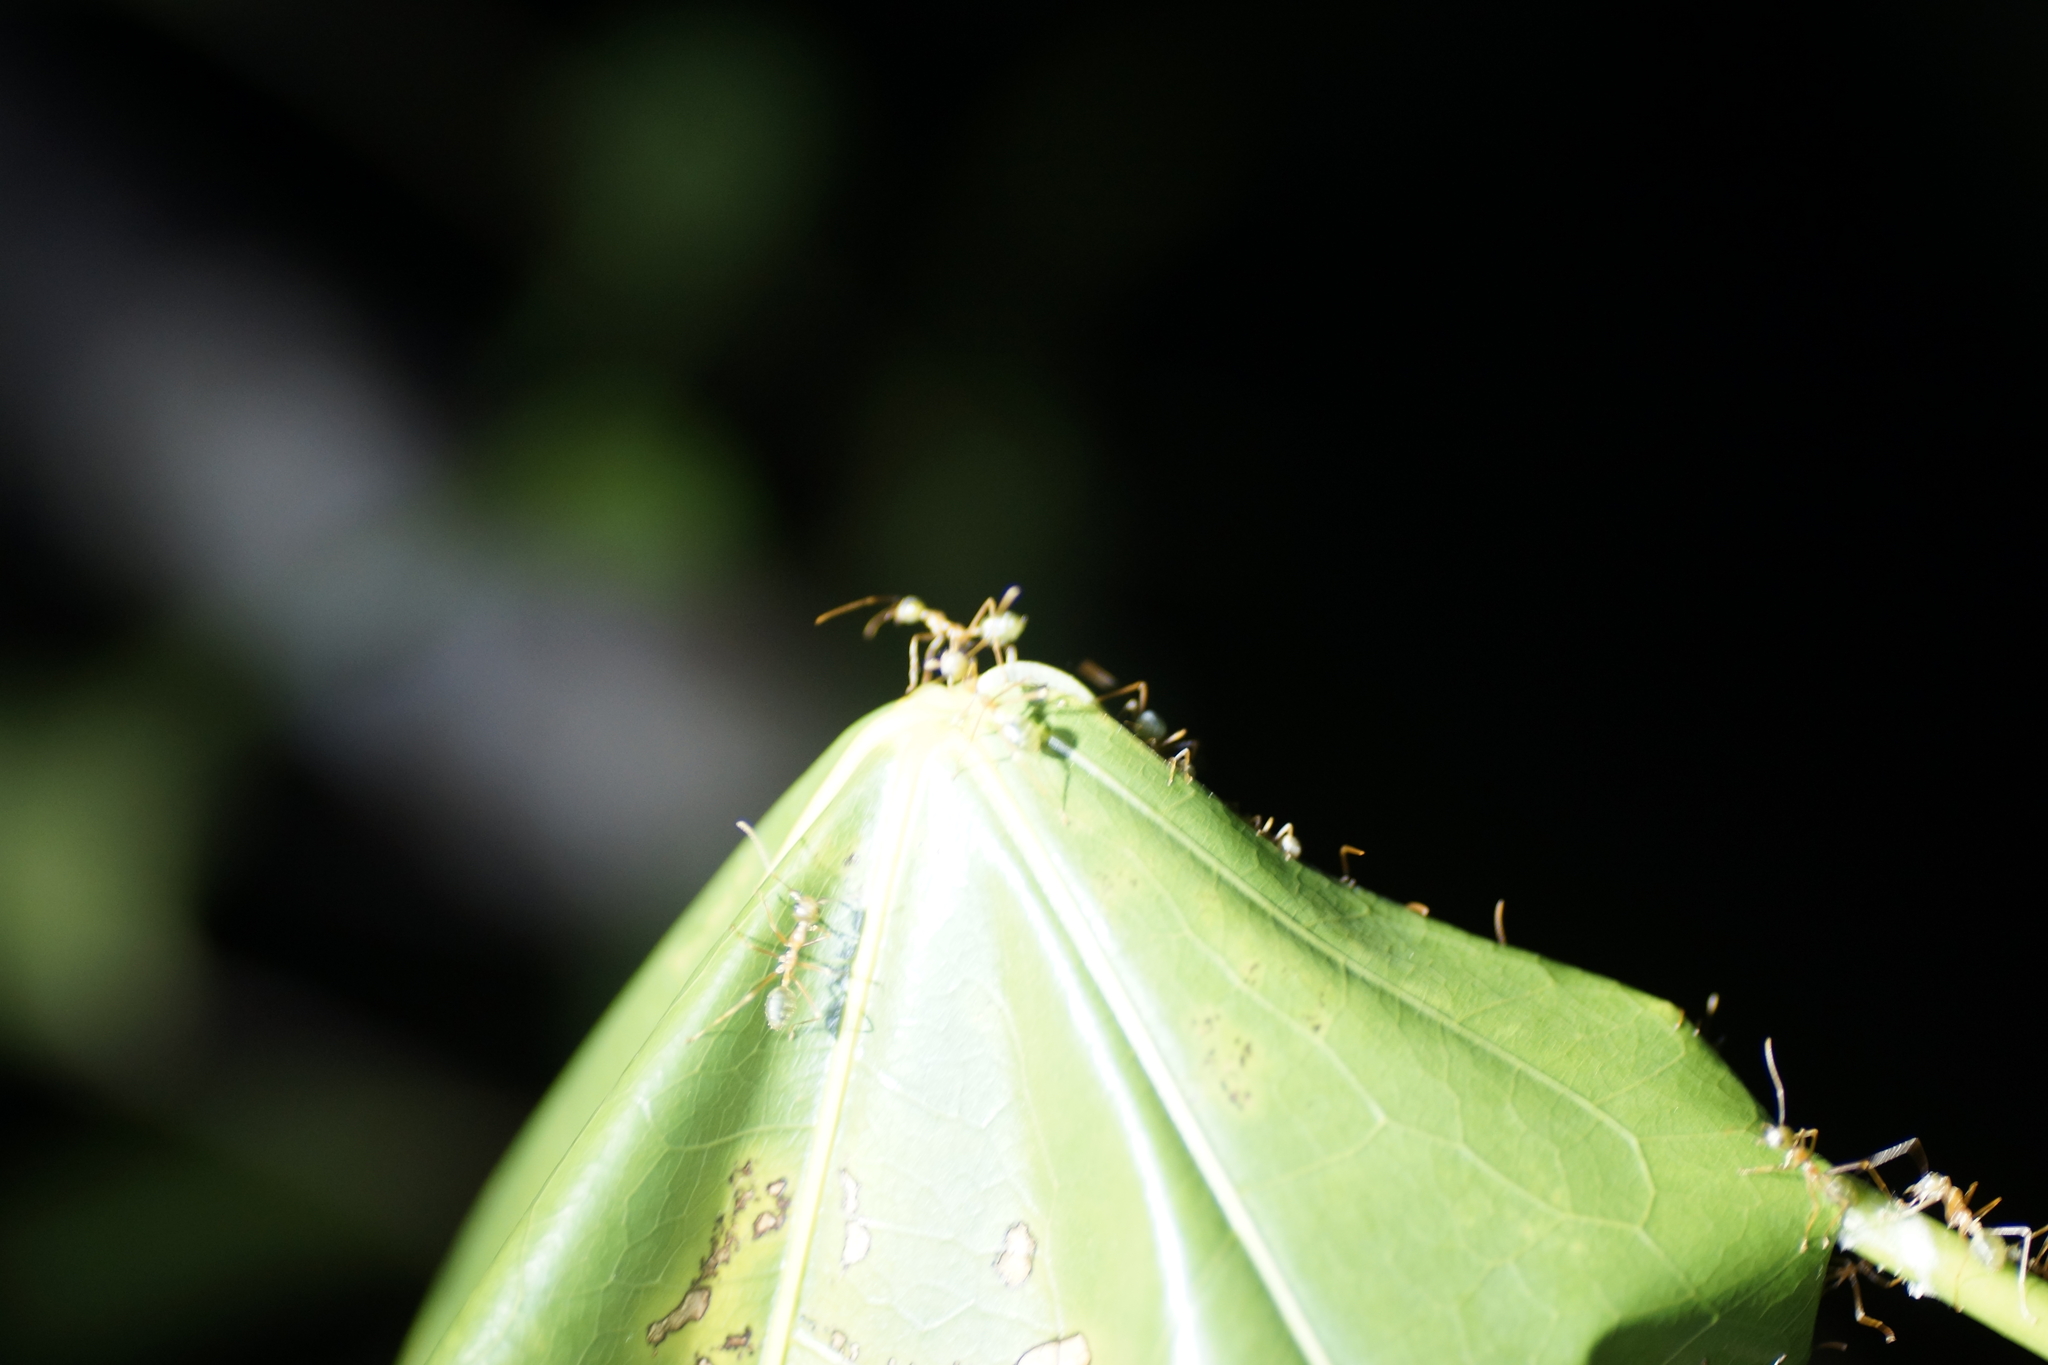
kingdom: Animalia
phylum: Arthropoda
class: Insecta
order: Hymenoptera
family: Formicidae
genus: Oecophylla
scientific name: Oecophylla smaragdina
